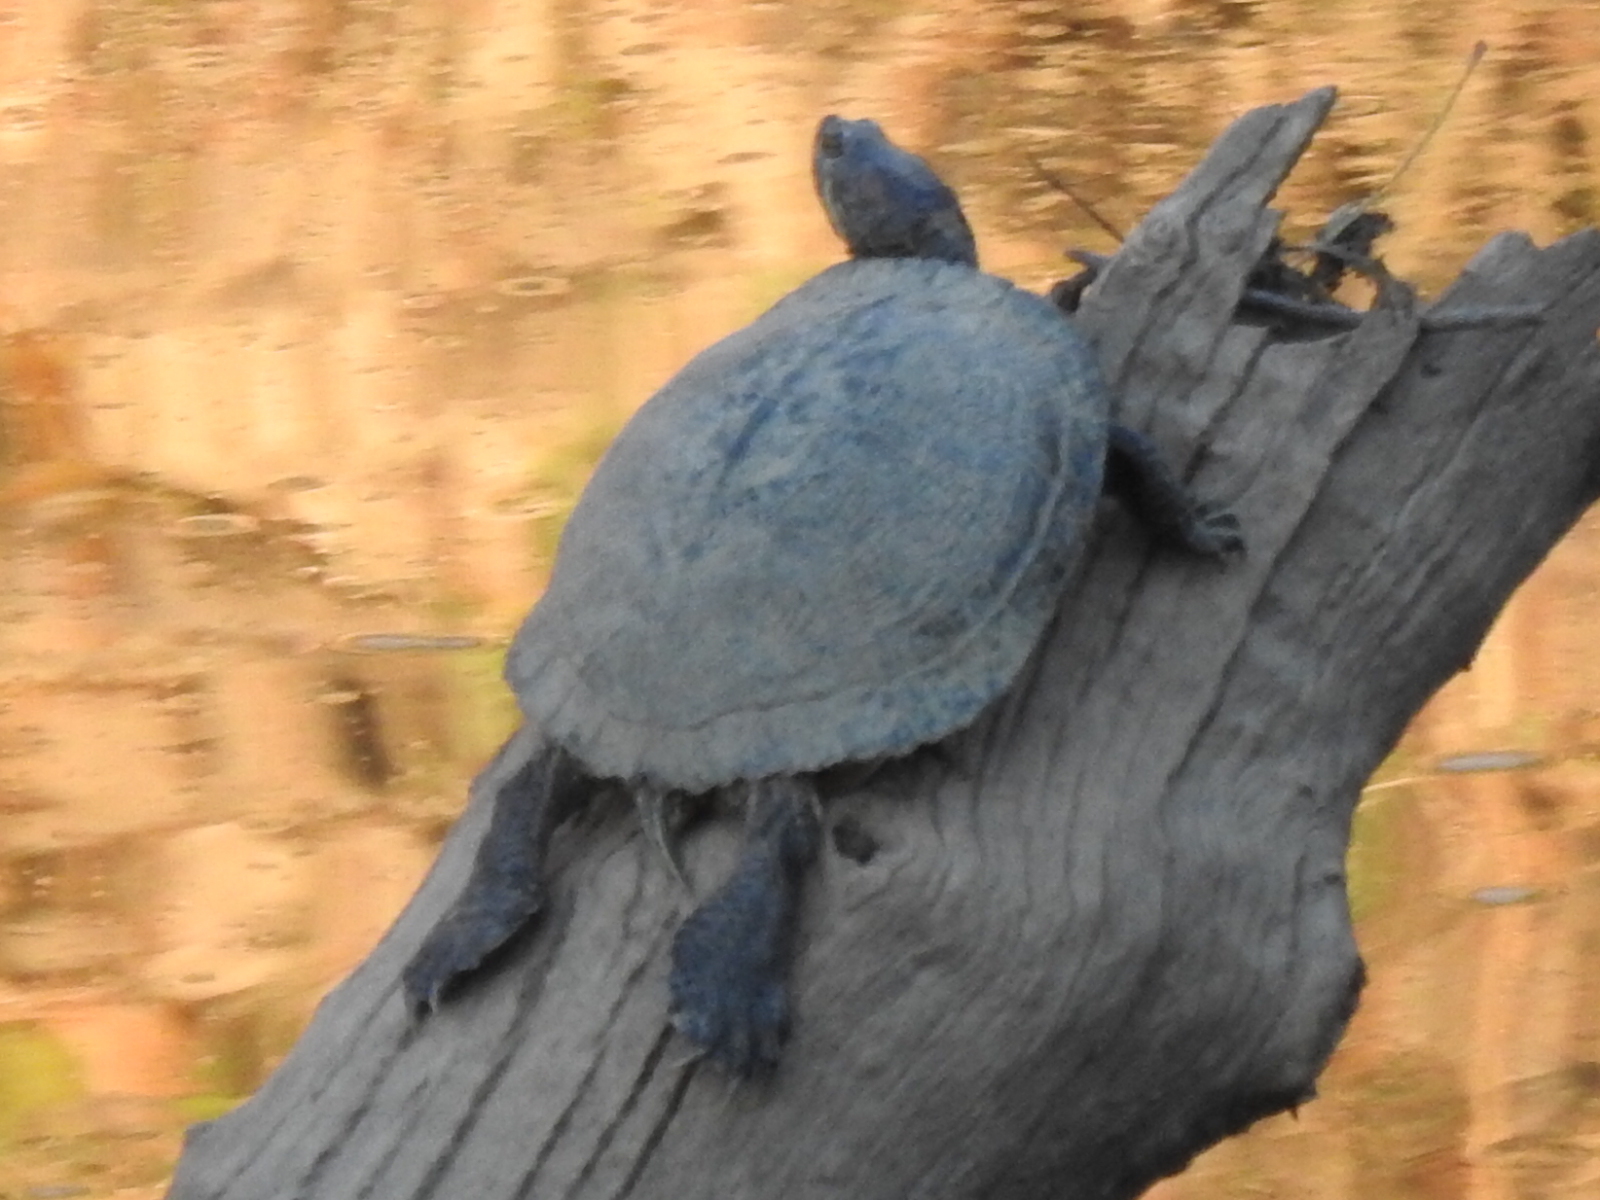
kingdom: Animalia
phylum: Chordata
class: Testudines
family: Emydidae
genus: Trachemys
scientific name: Trachemys scripta
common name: Slider
